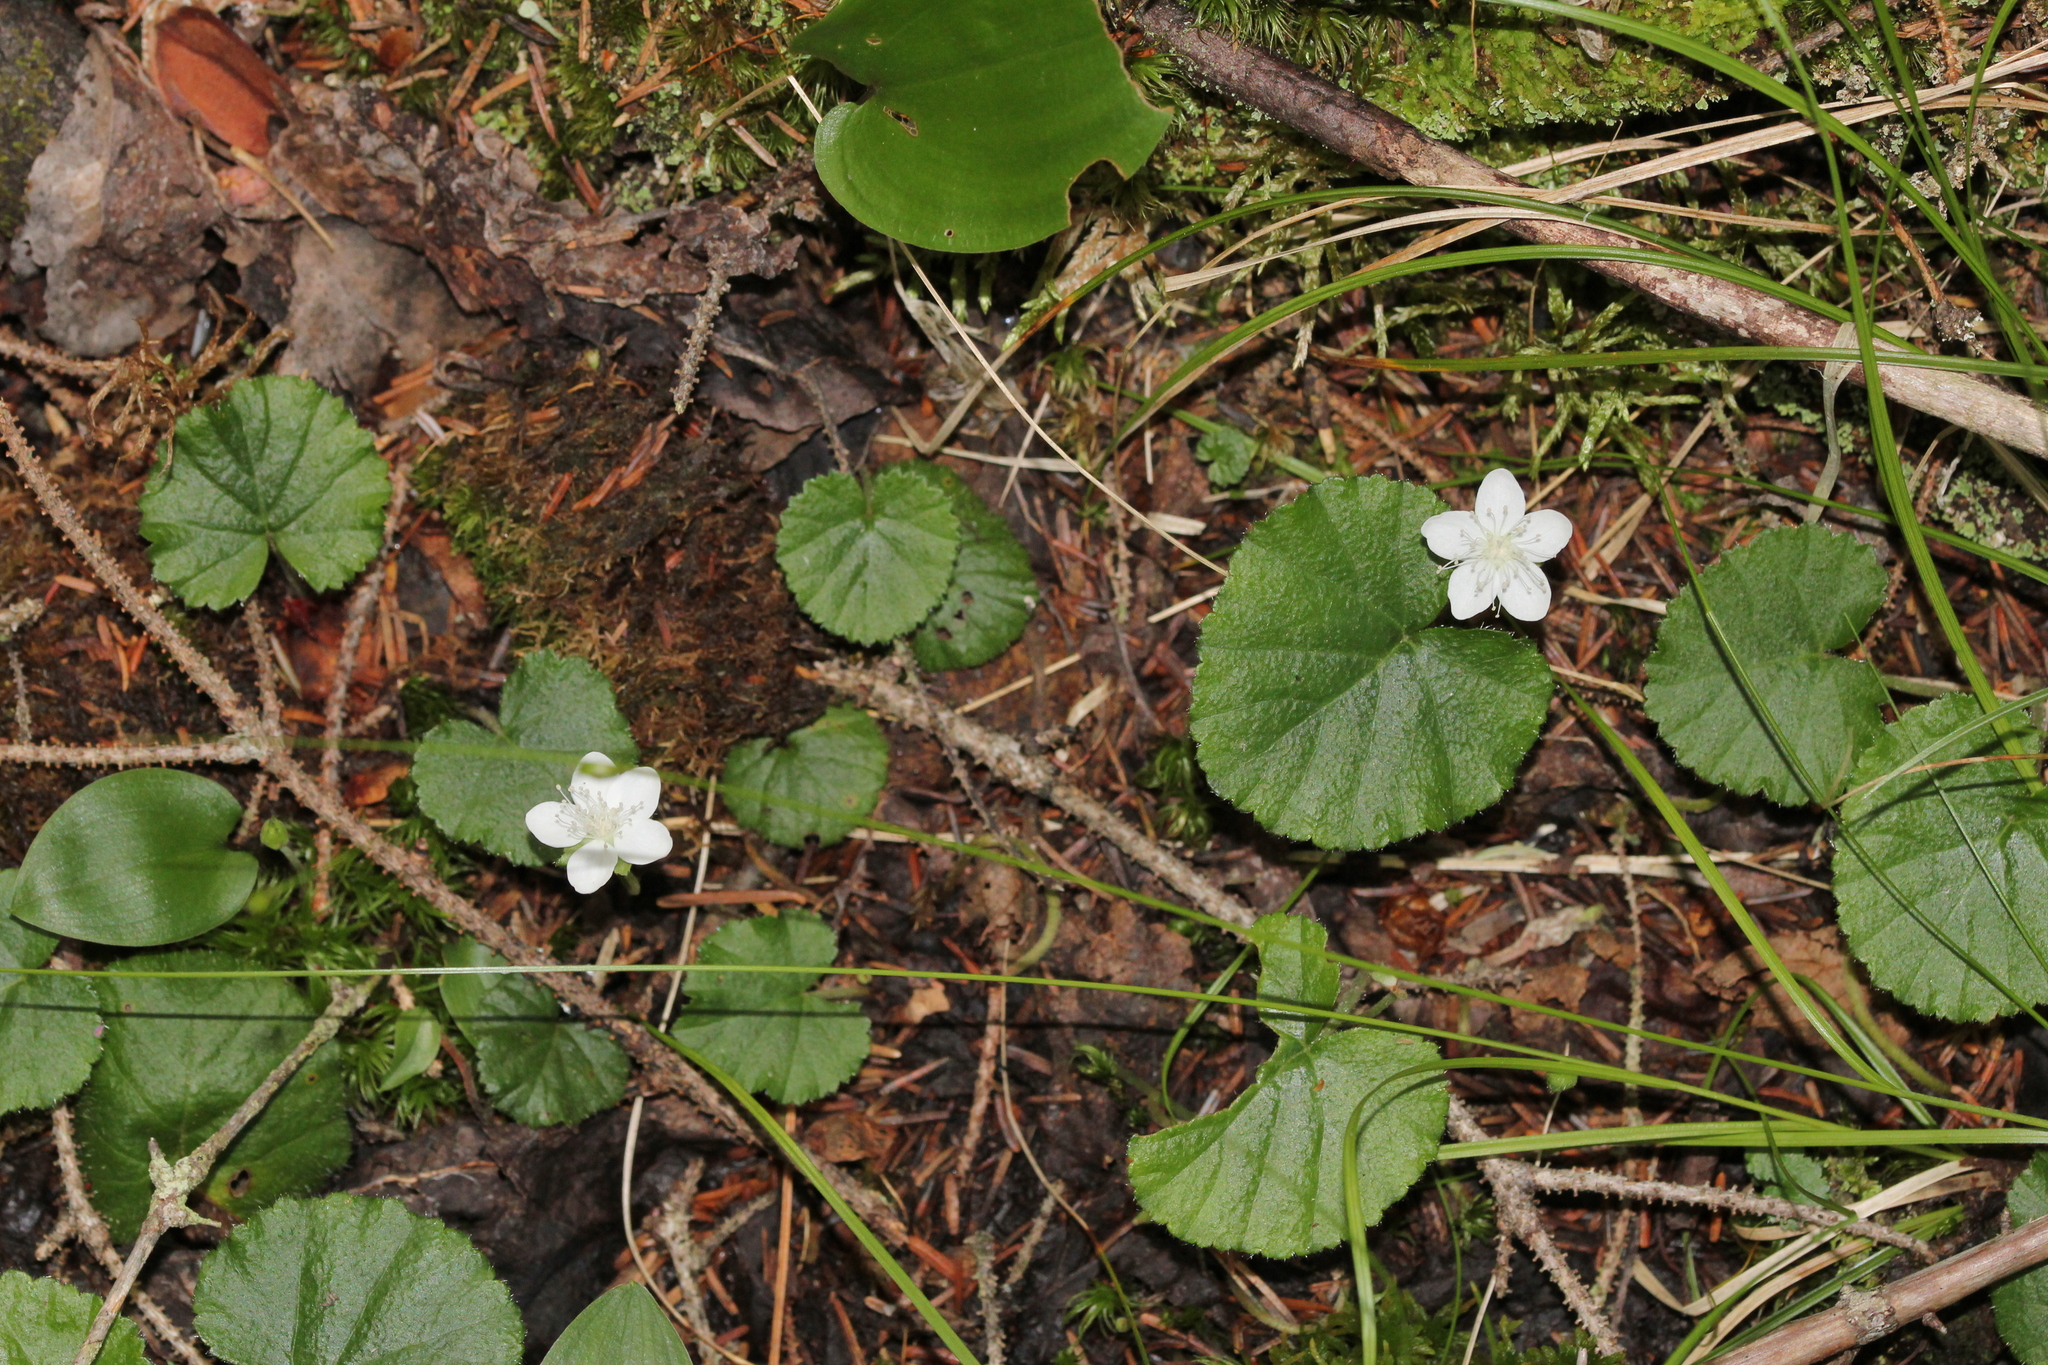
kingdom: Plantae
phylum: Tracheophyta
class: Magnoliopsida
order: Rosales
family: Rosaceae
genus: Dalibarda
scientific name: Dalibarda repens
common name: Dewdrop
